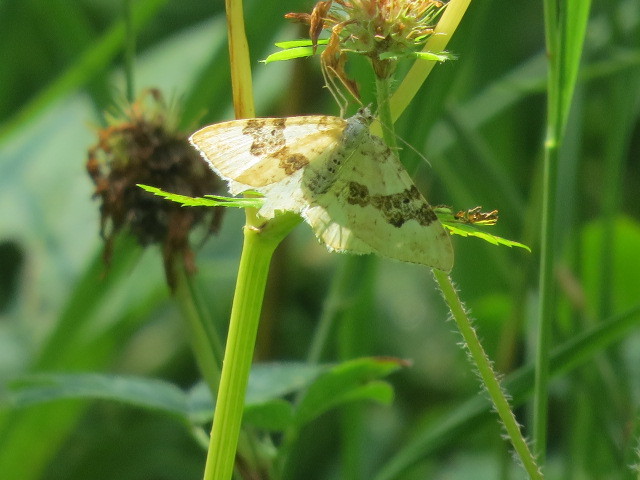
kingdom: Animalia
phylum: Arthropoda
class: Insecta
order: Lepidoptera
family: Geometridae
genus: Xanthorhoe
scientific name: Xanthorhoe montanata
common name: Silver-ground carpet
